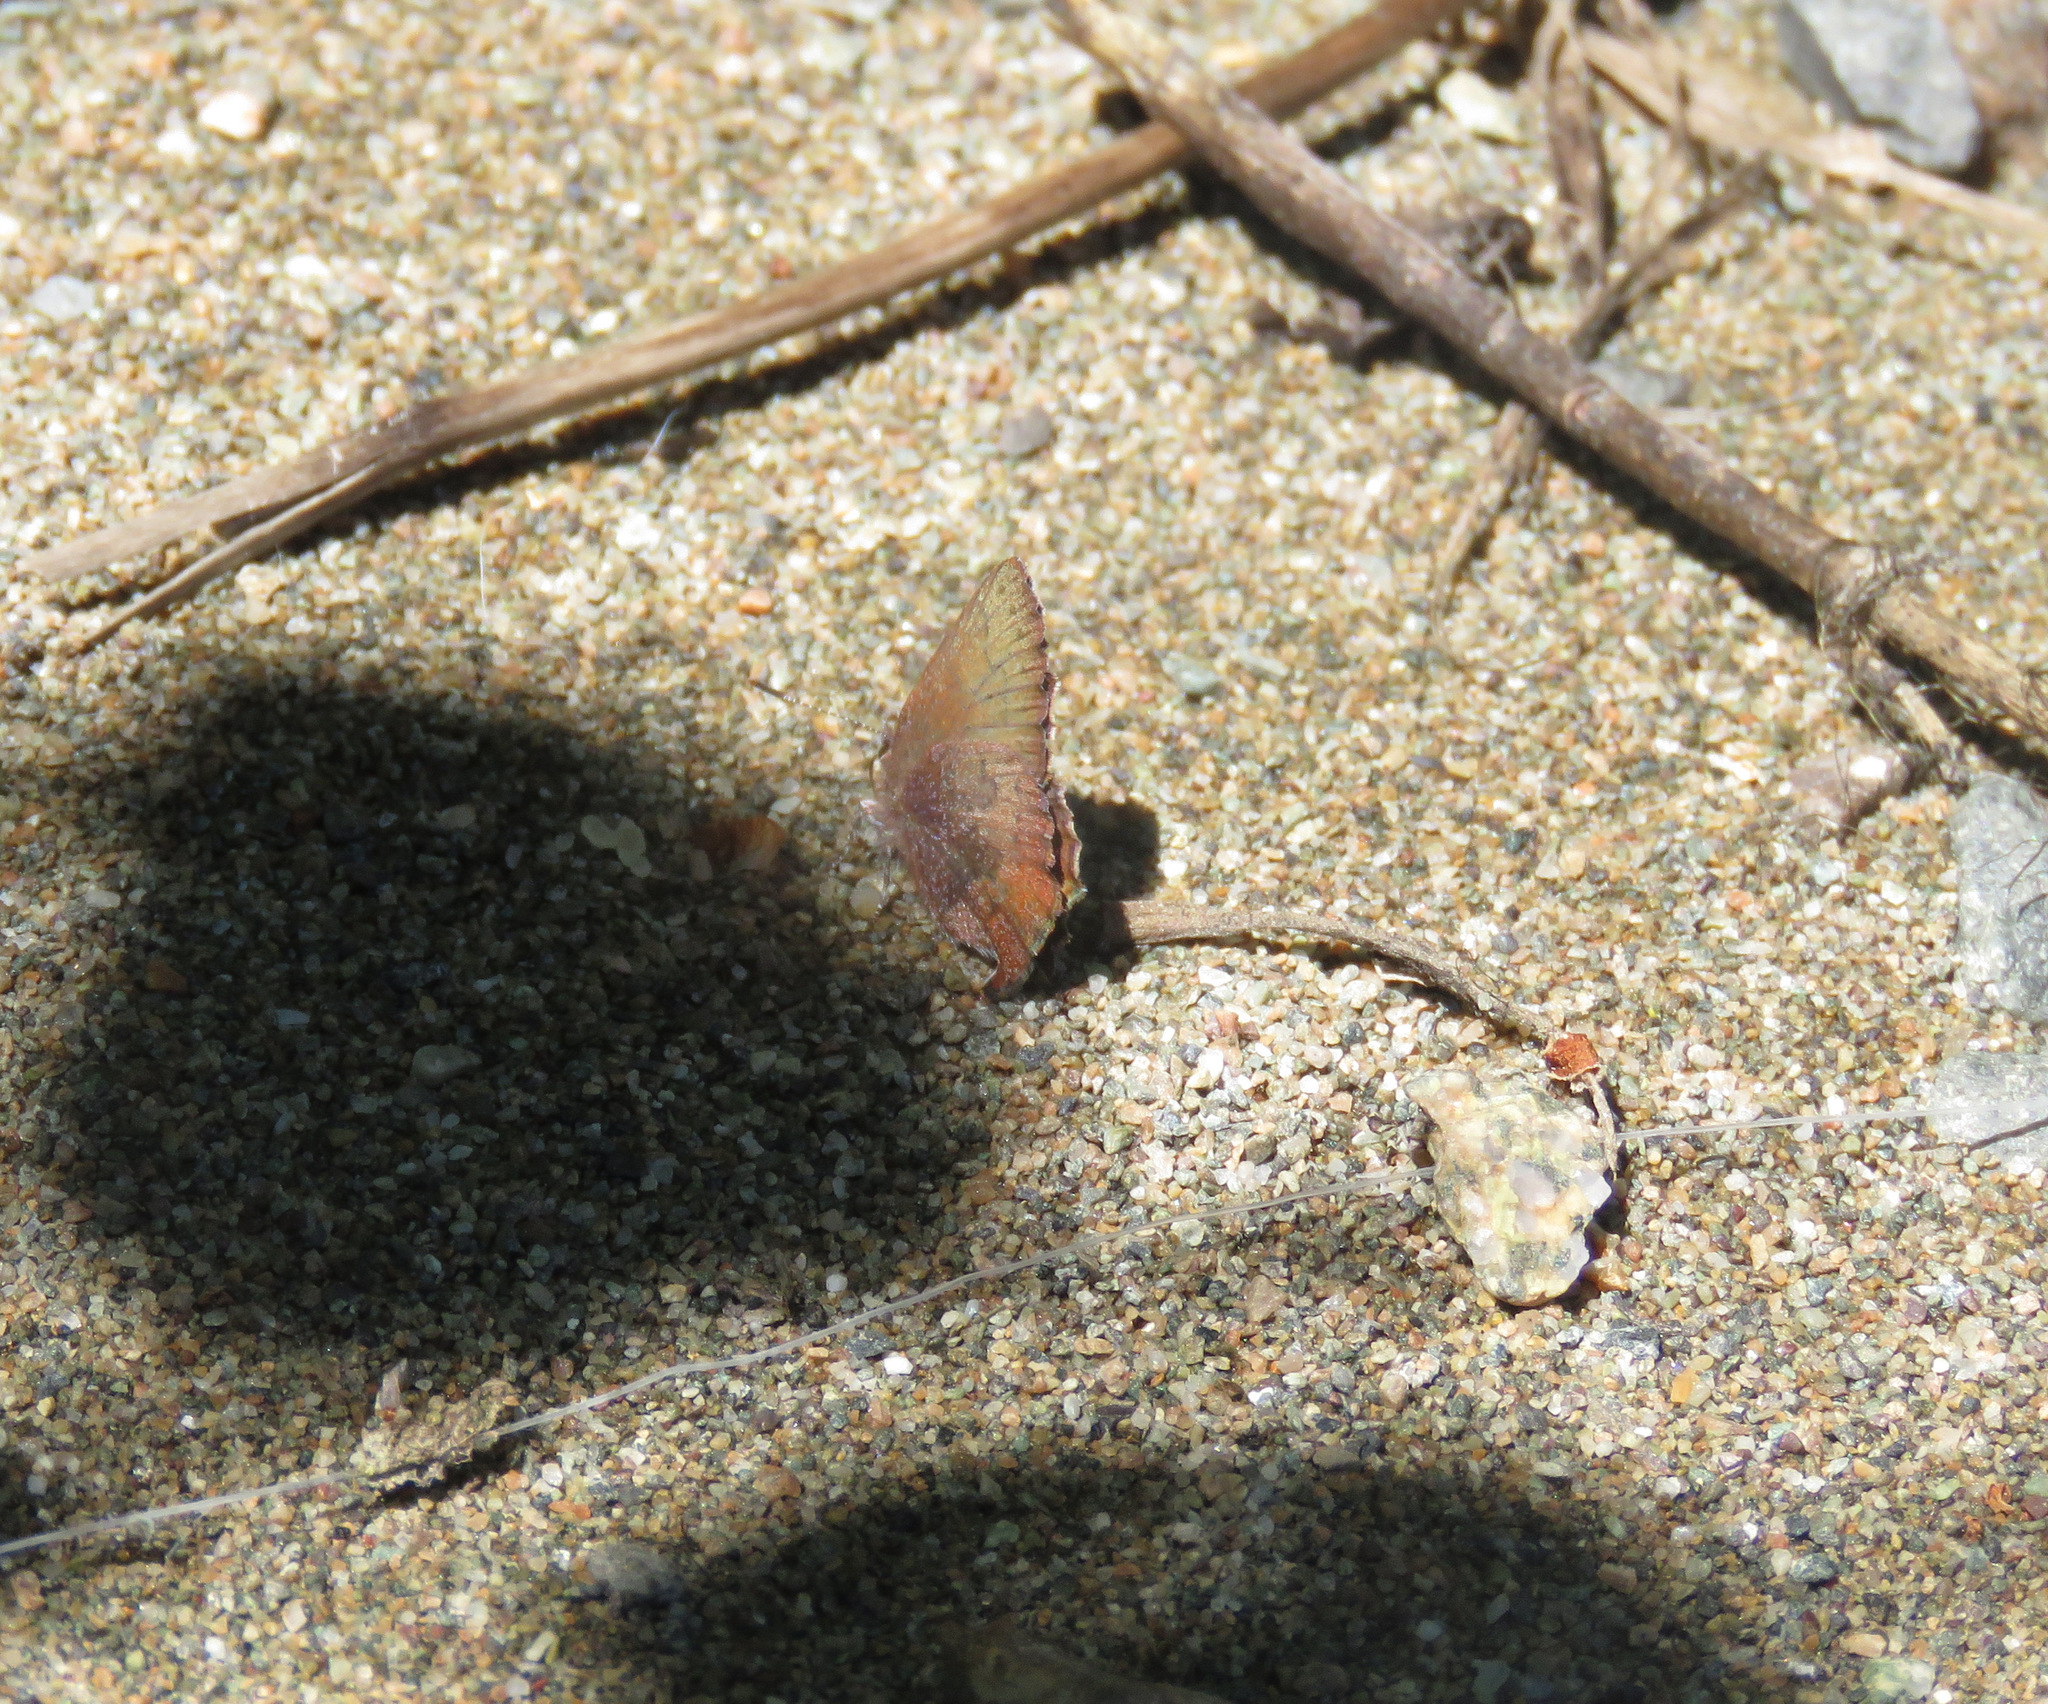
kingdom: Animalia
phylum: Arthropoda
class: Insecta
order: Lepidoptera
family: Lycaenidae
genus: Incisalia
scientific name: Incisalia irioides
